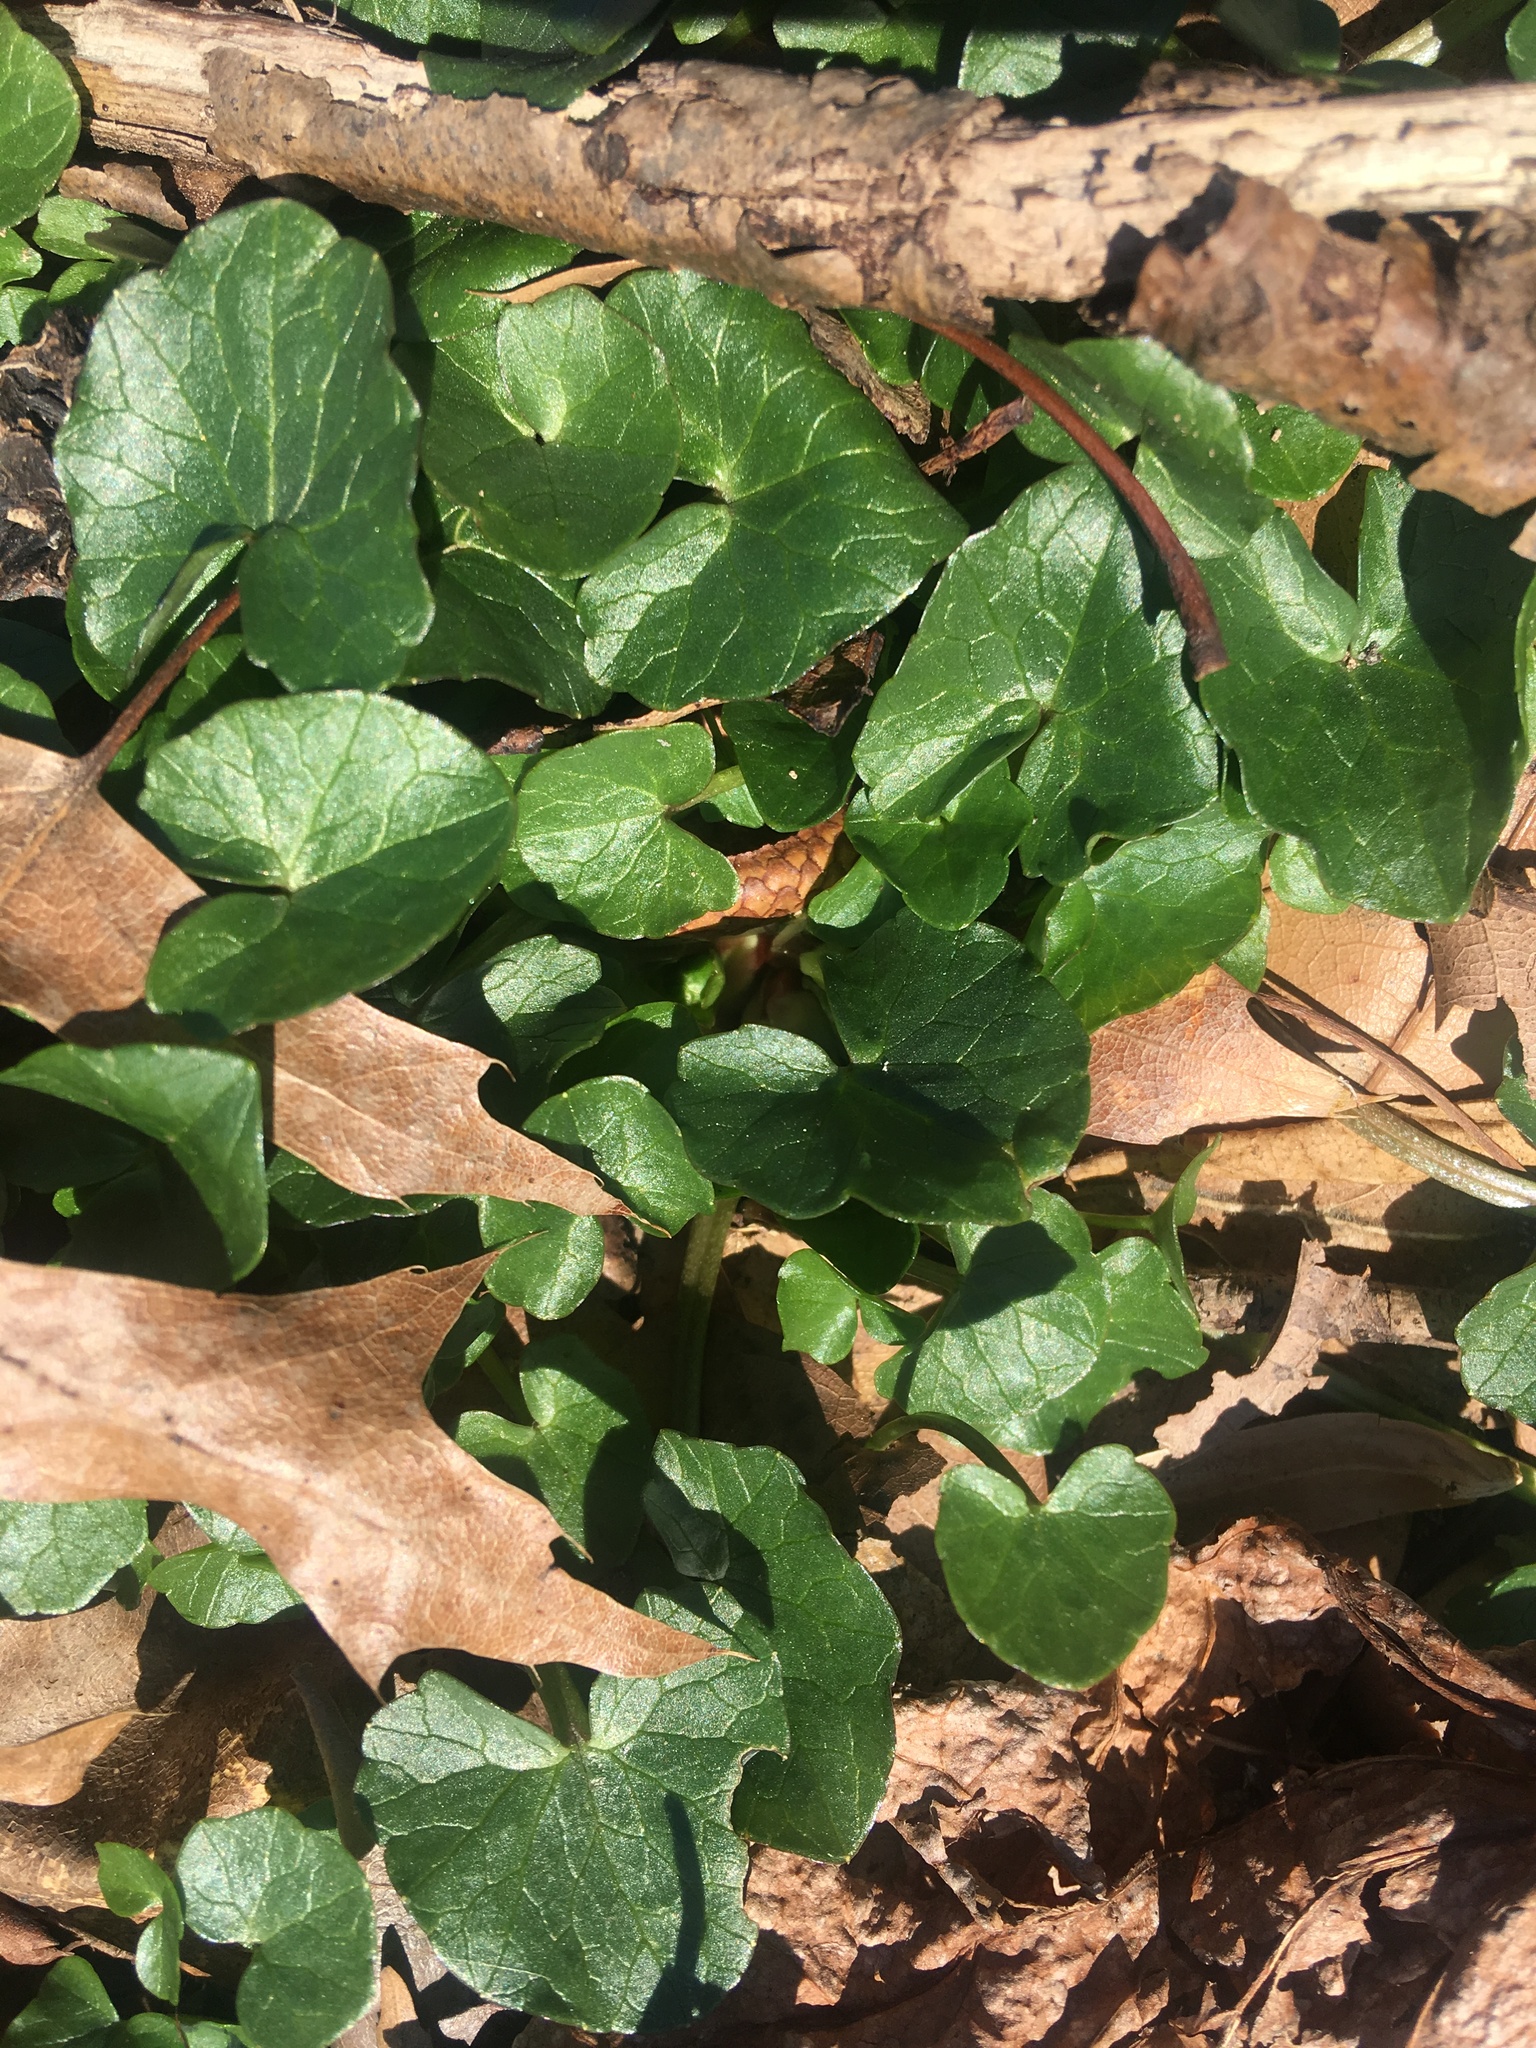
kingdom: Plantae
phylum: Tracheophyta
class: Magnoliopsida
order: Ranunculales
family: Ranunculaceae
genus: Ficaria
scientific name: Ficaria verna
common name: Lesser celandine
